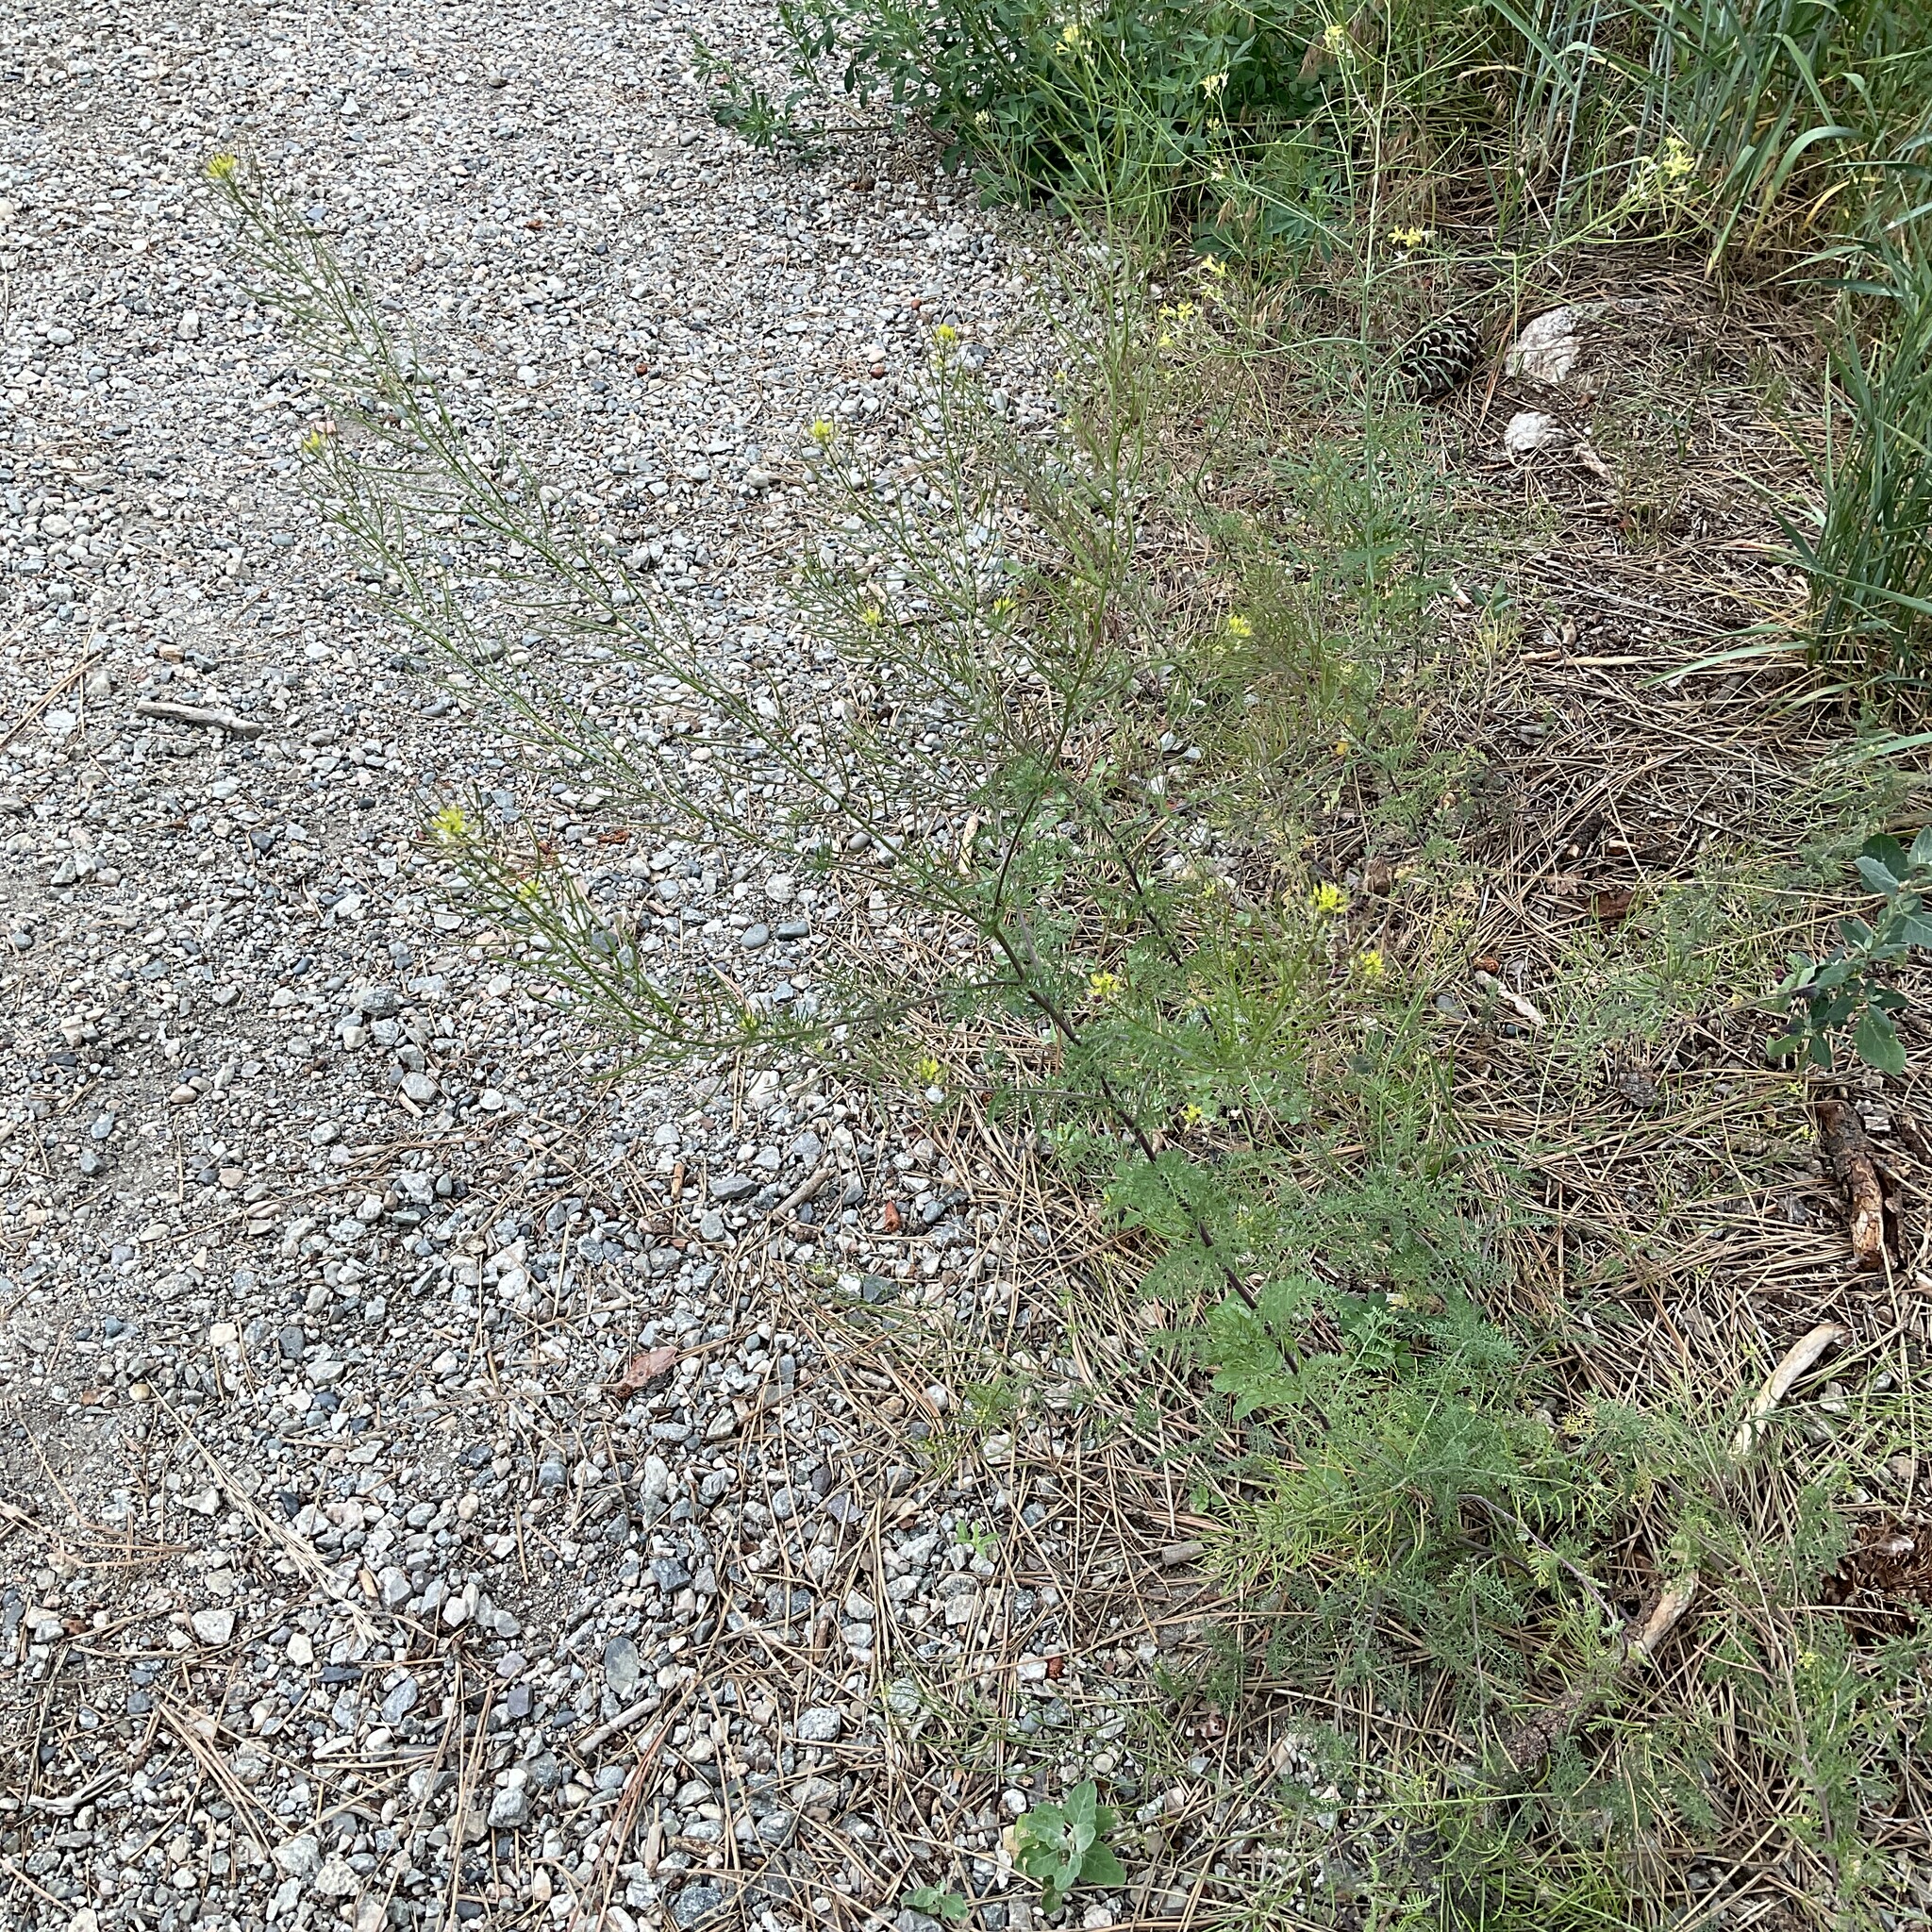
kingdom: Plantae
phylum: Tracheophyta
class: Magnoliopsida
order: Brassicales
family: Brassicaceae
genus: Descurainia
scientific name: Descurainia sophia
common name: Flixweed
